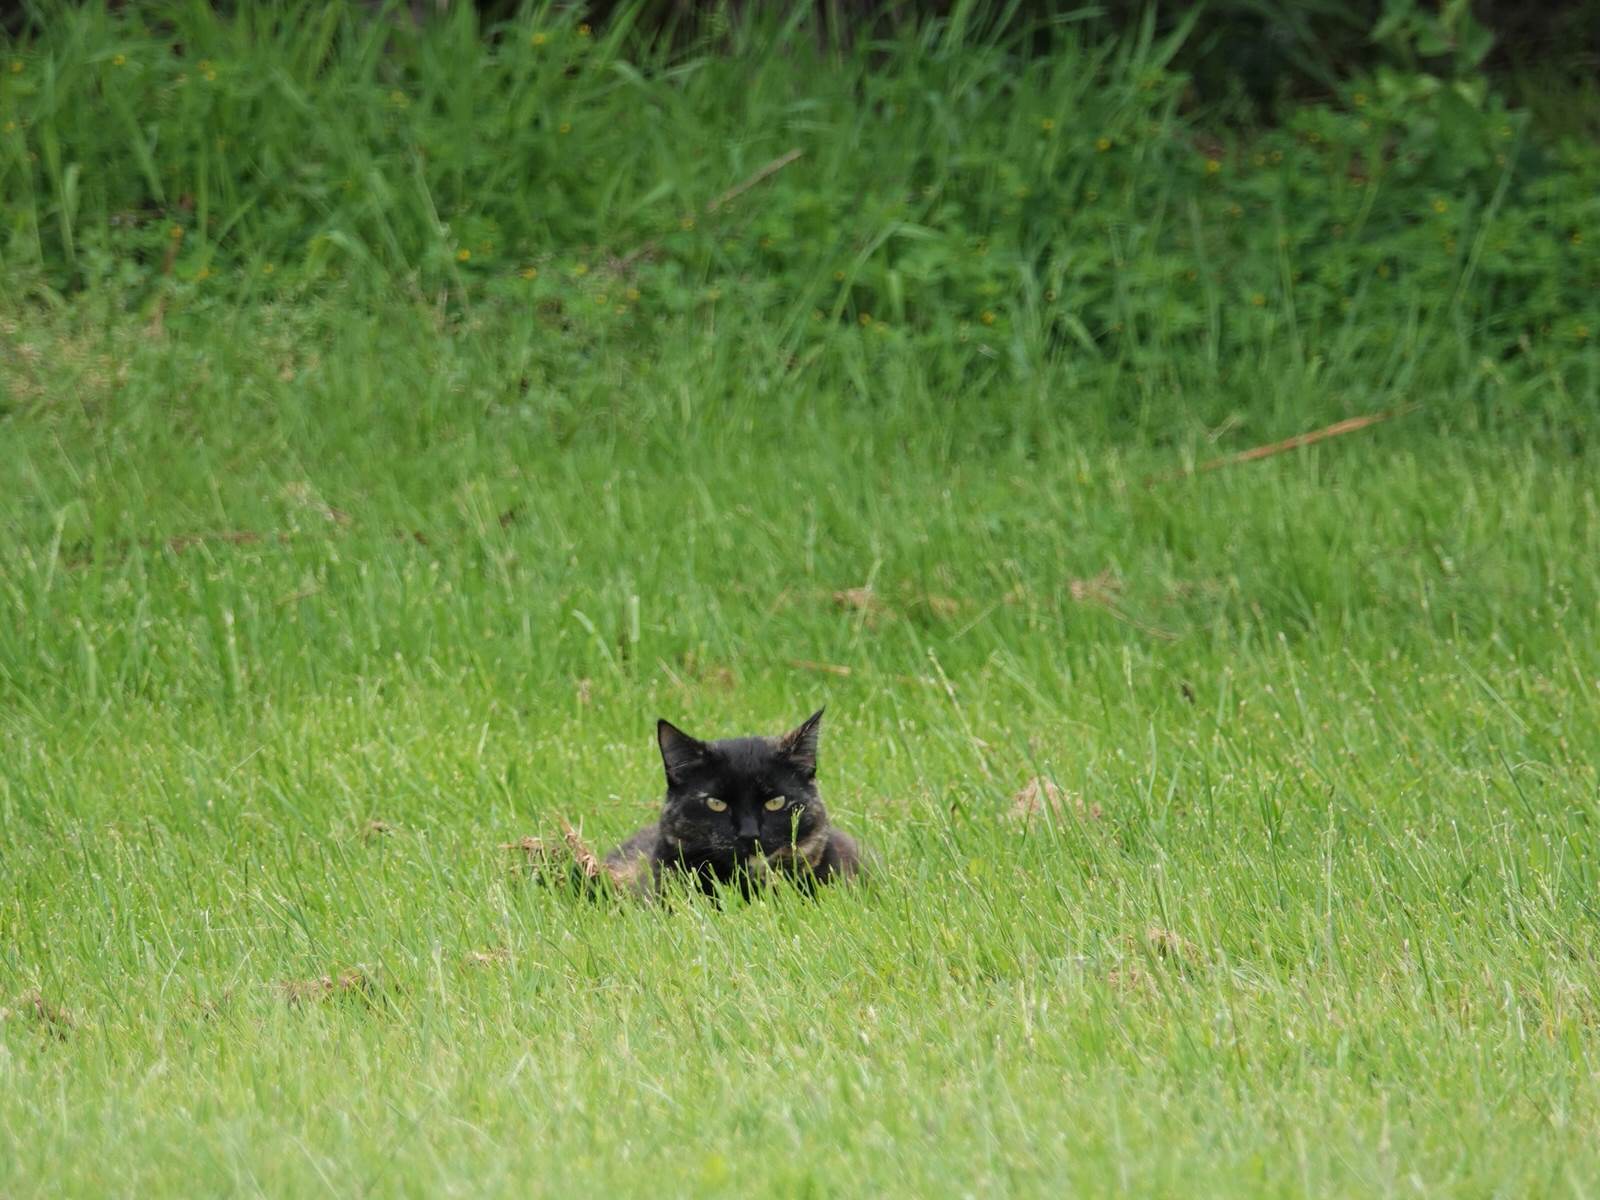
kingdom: Animalia
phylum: Chordata
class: Mammalia
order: Carnivora
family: Felidae
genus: Felis
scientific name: Felis catus
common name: Domestic cat
